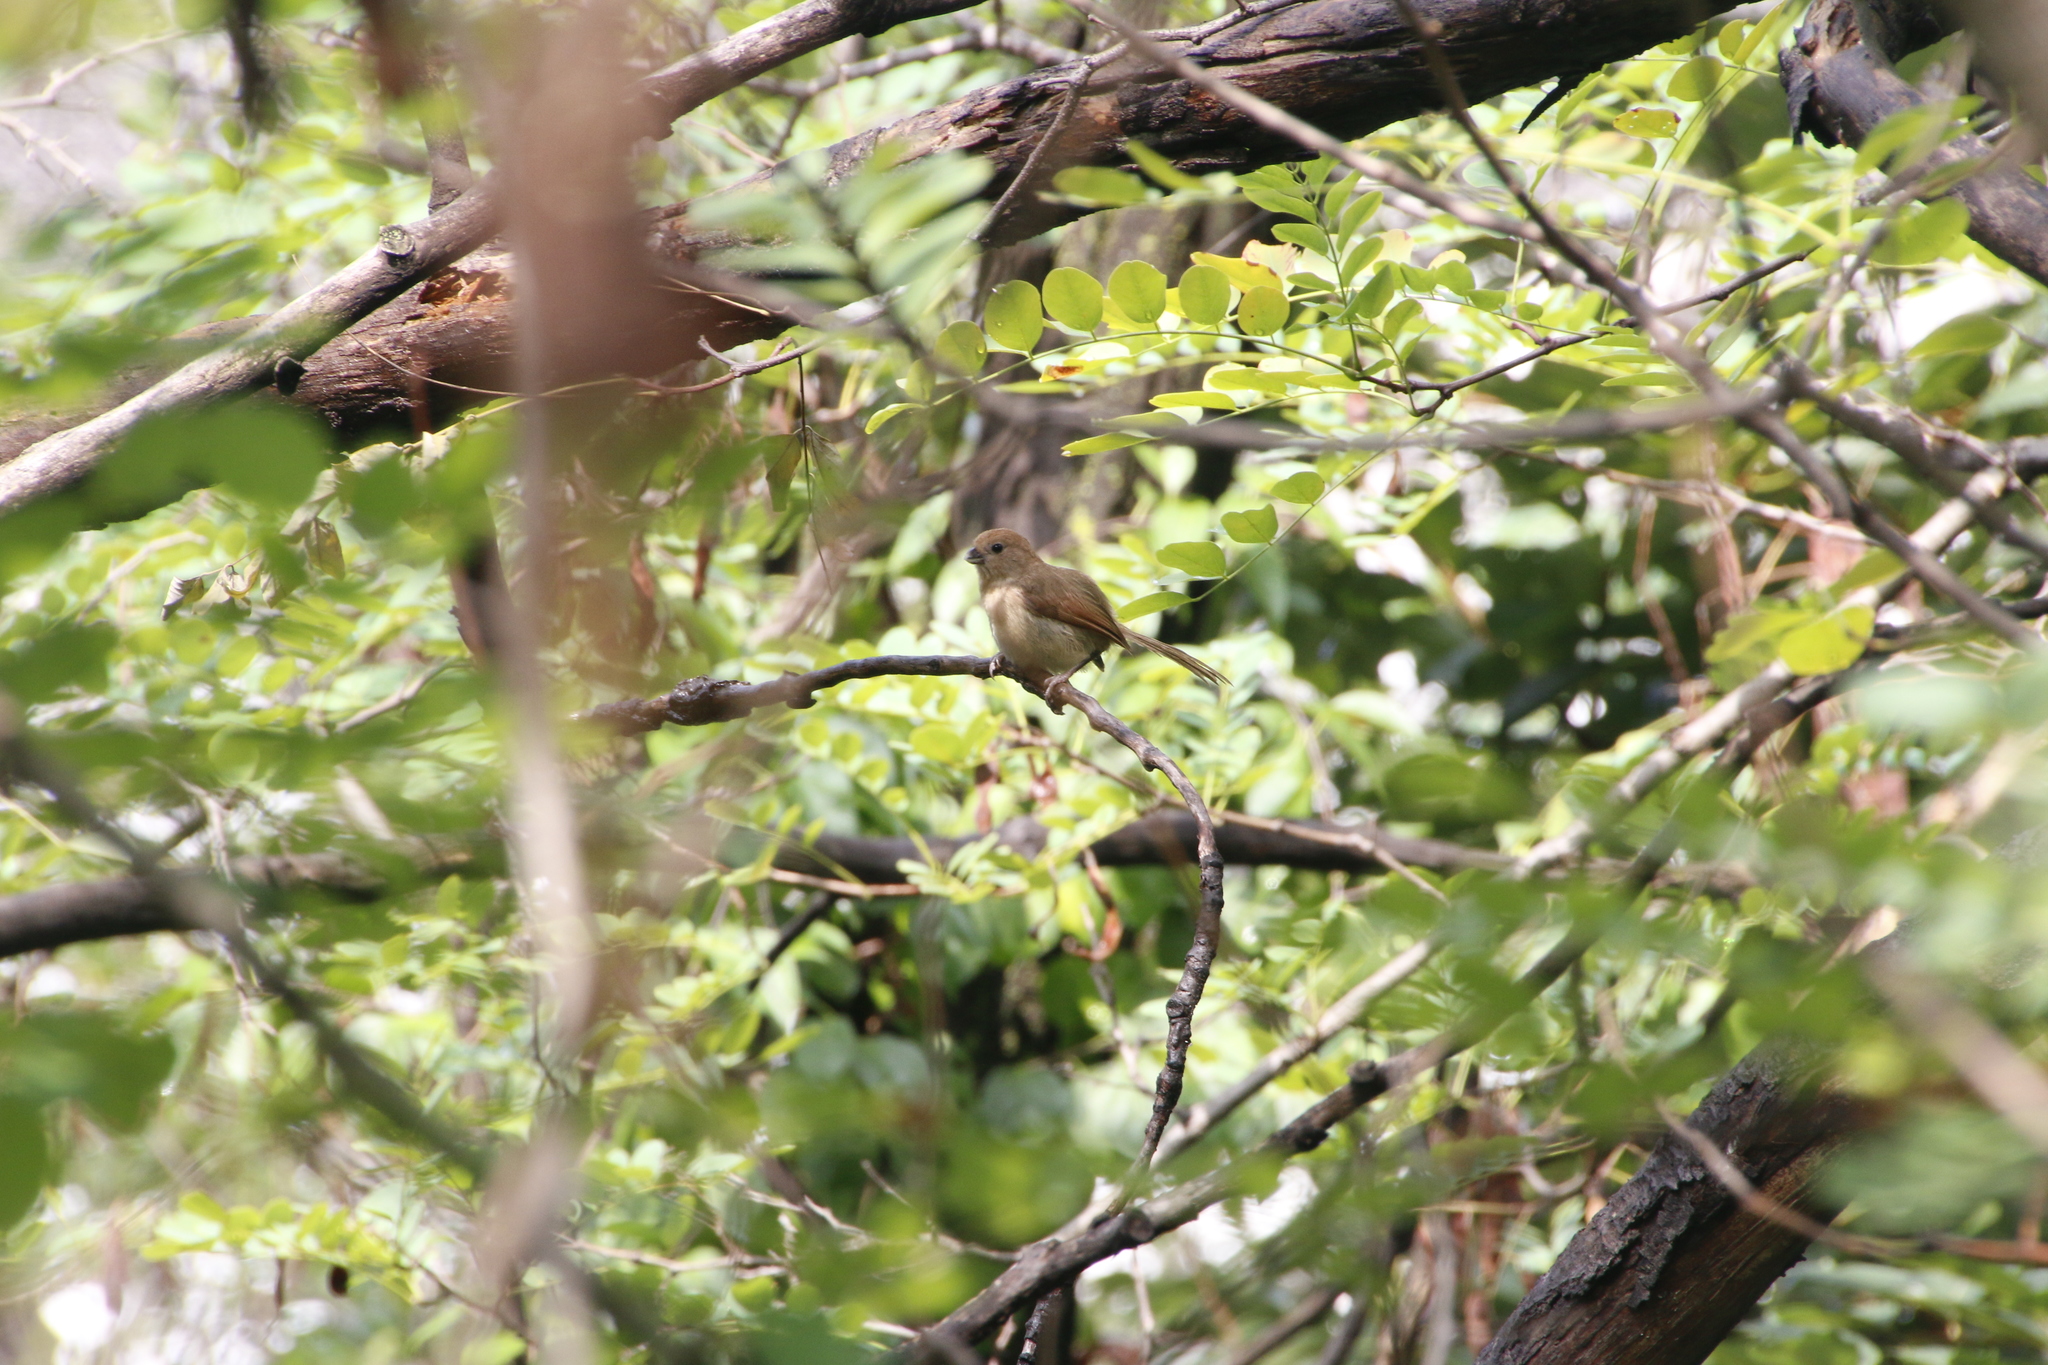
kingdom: Animalia
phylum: Chordata
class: Aves
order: Passeriformes
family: Sylviidae
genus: Sinosuthora
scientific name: Sinosuthora webbiana
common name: Vinous-throated parrotbill
